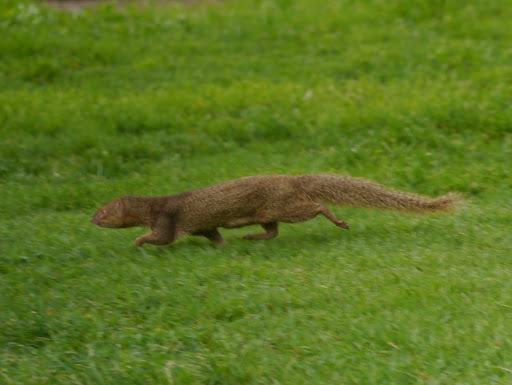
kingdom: Animalia
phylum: Chordata
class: Mammalia
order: Carnivora
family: Herpestidae
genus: Herpestes
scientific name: Herpestes javanicus
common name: Small asian mongoose
